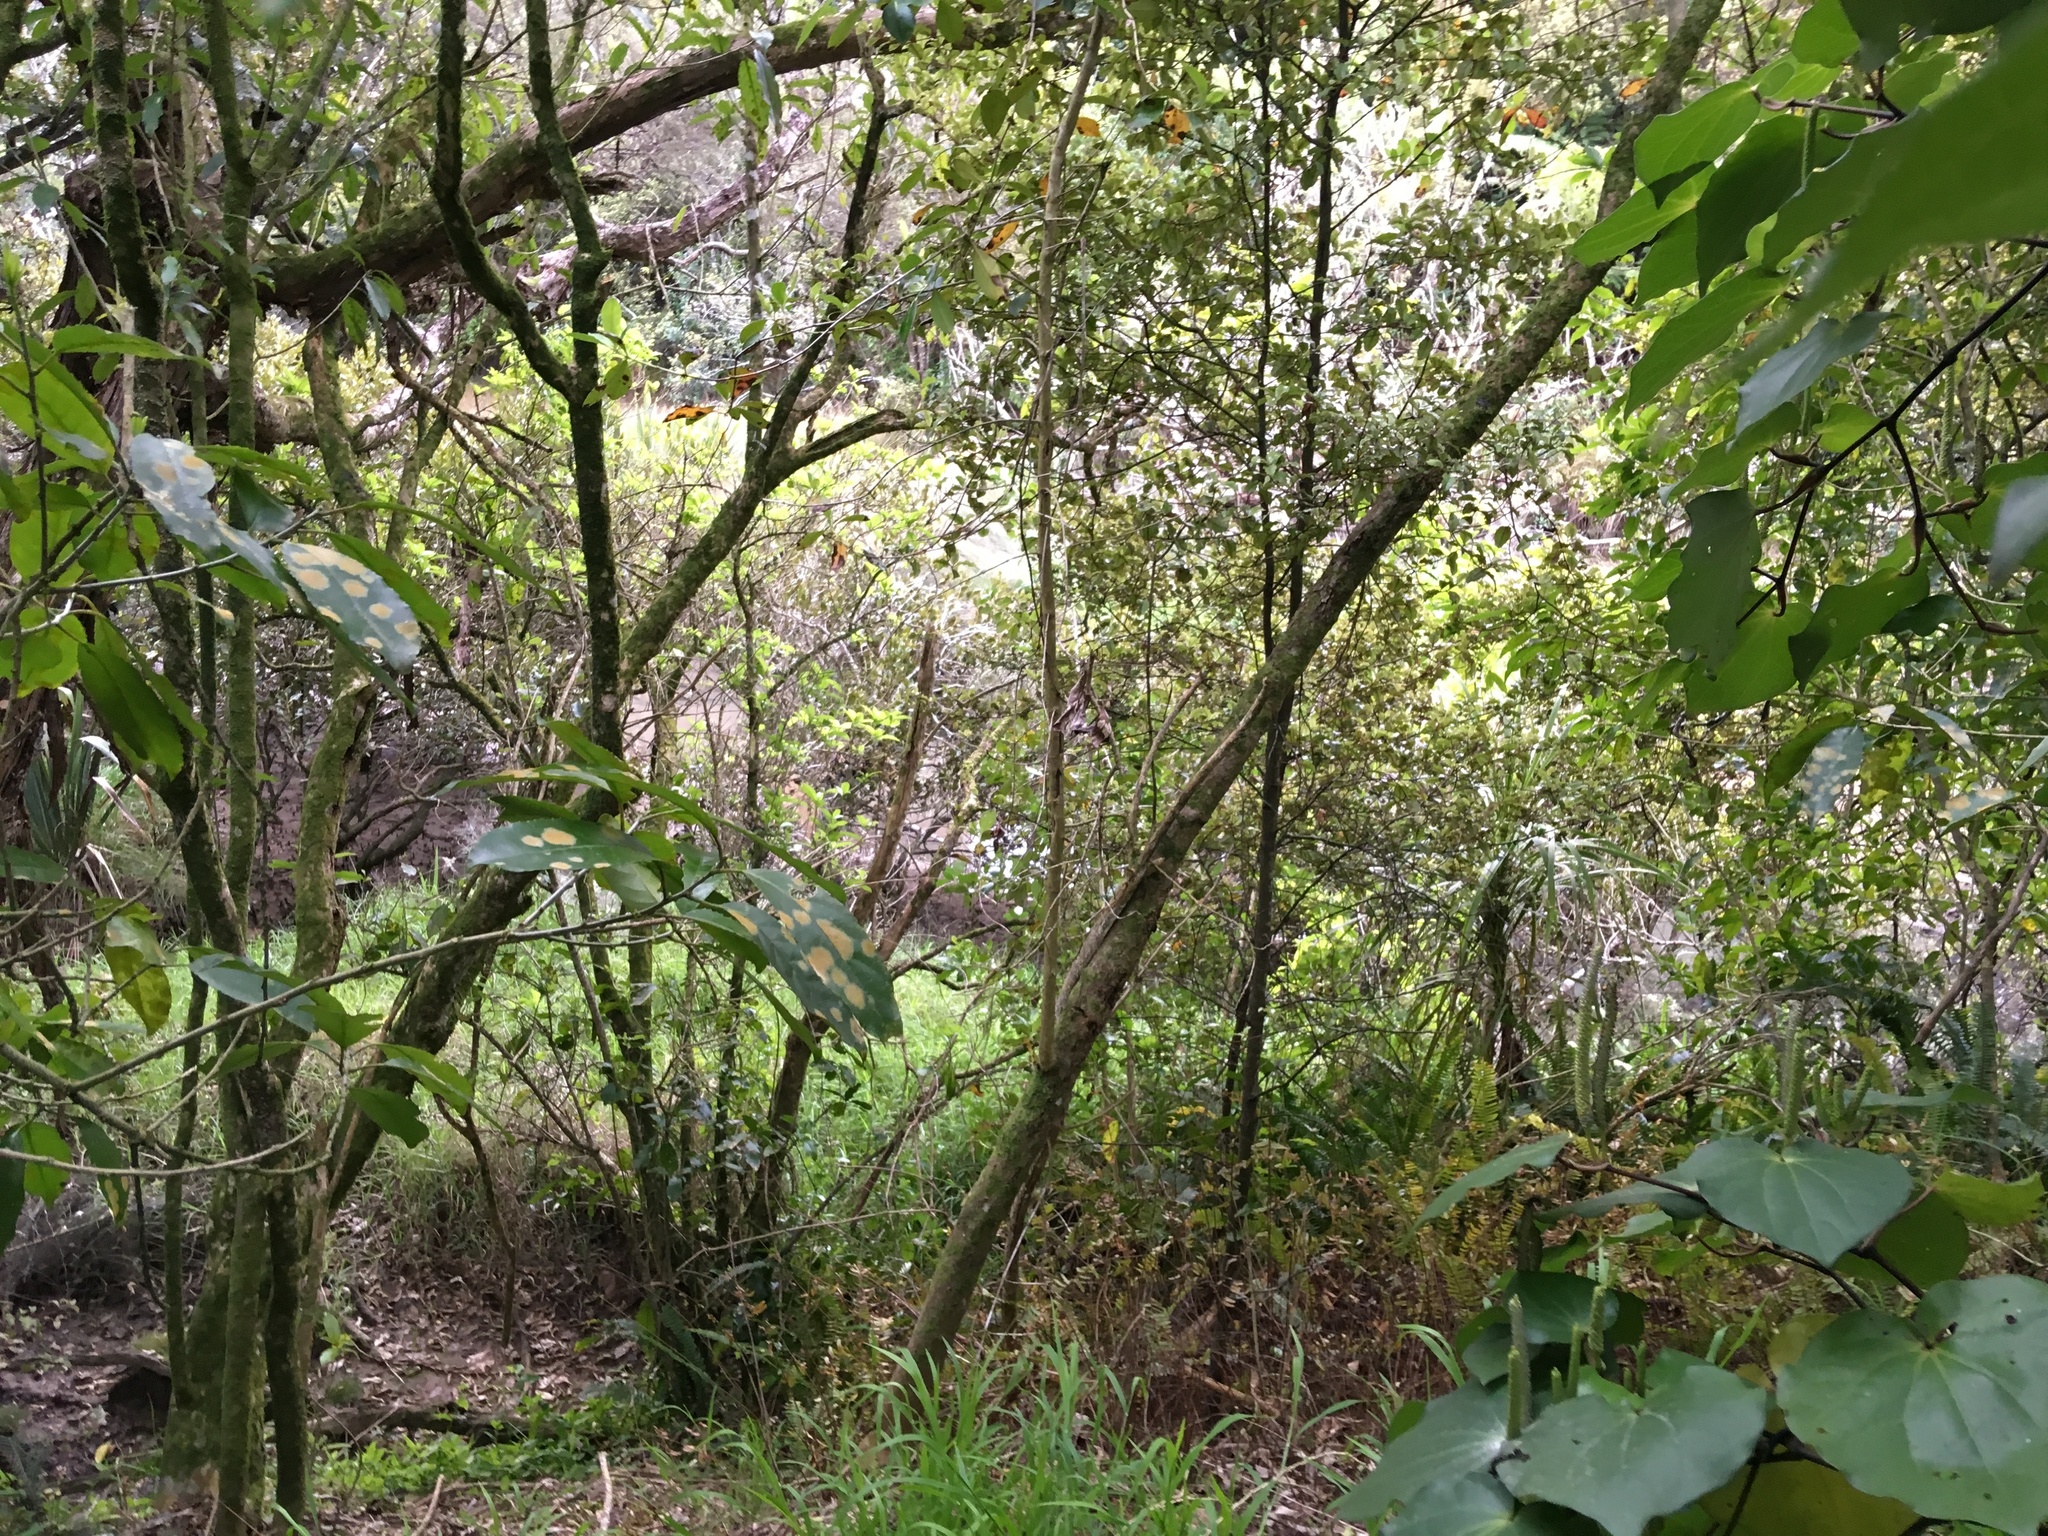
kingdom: Plantae
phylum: Tracheophyta
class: Magnoliopsida
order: Piperales
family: Piperaceae
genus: Macropiper
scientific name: Macropiper excelsum
